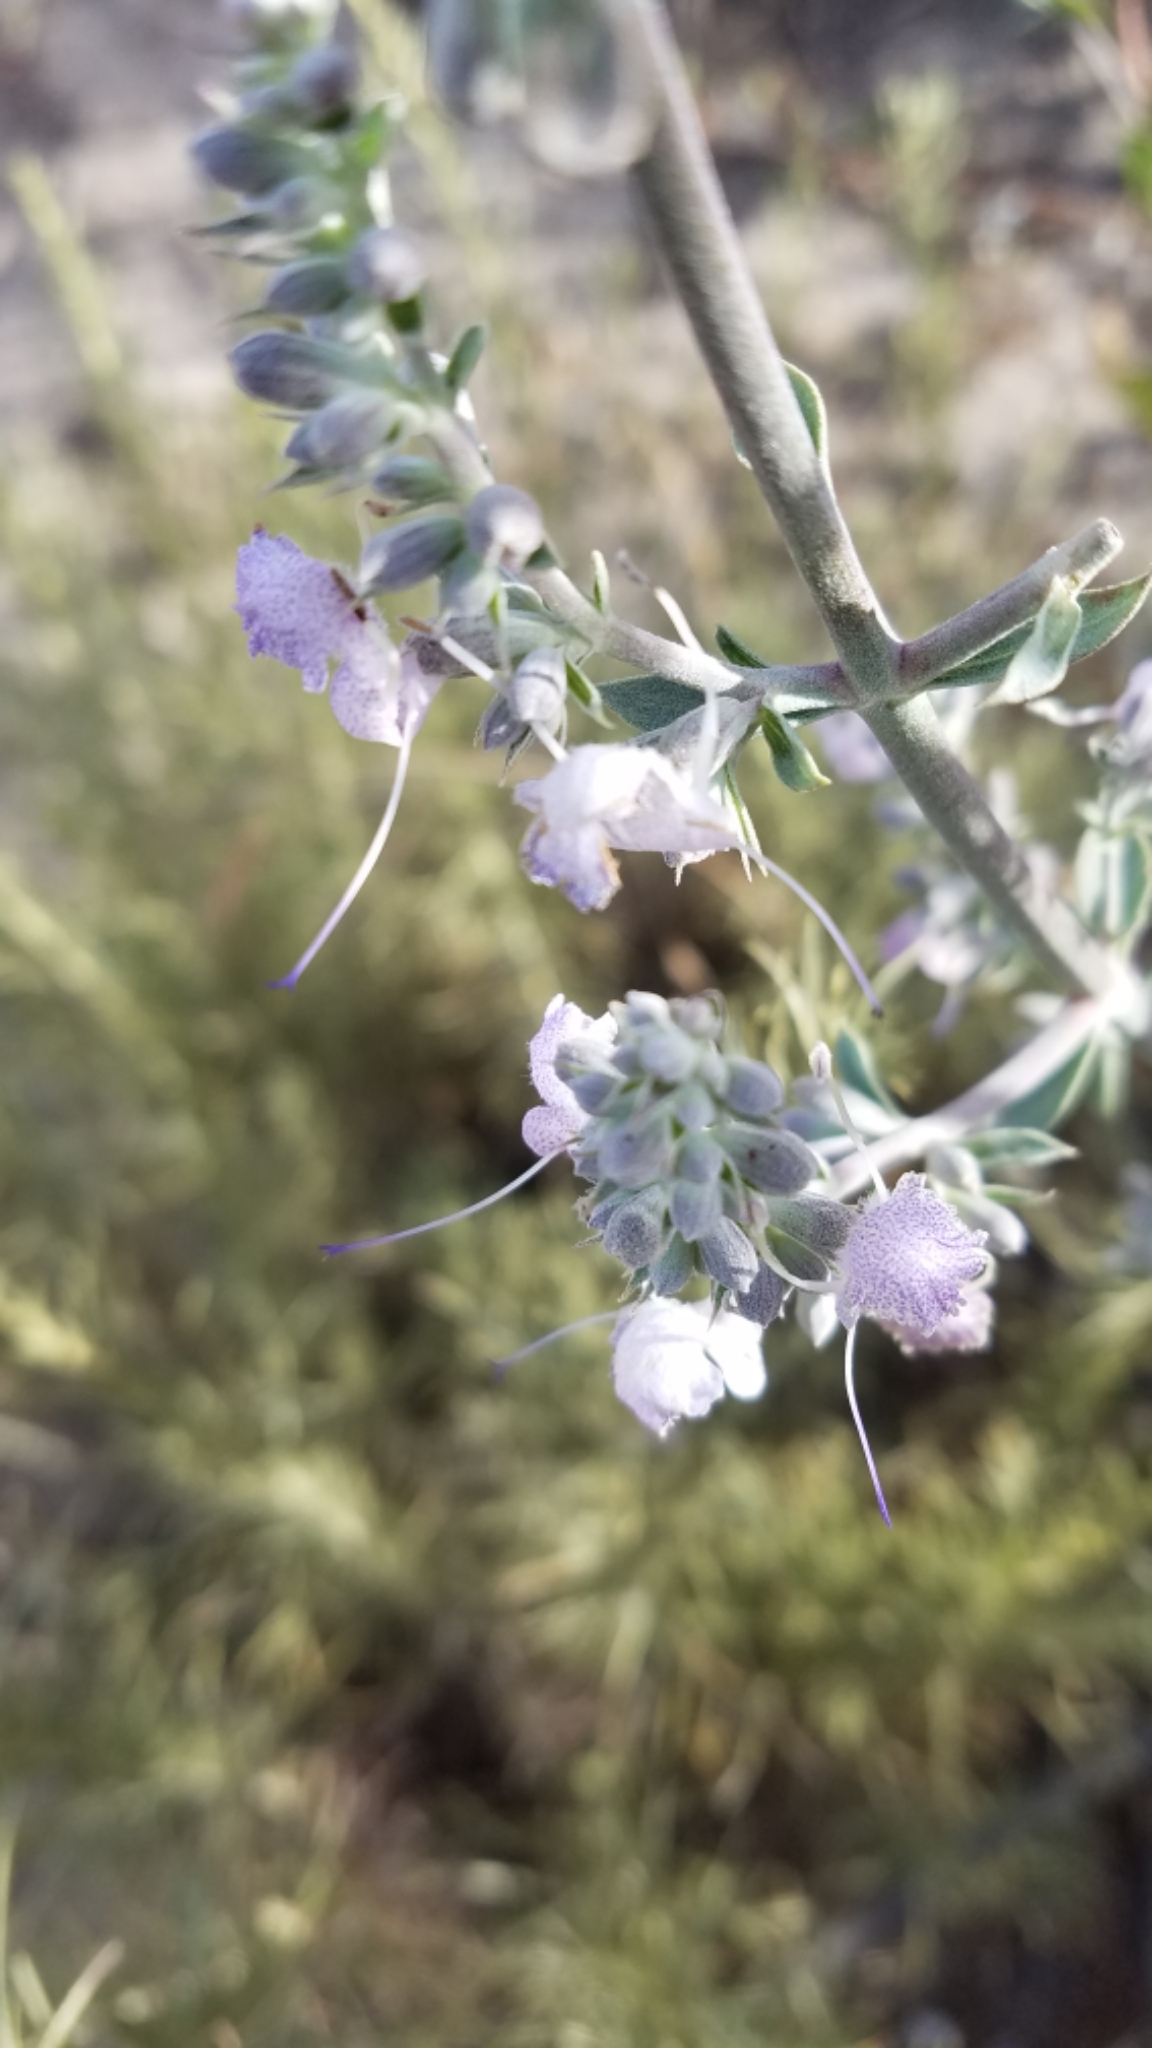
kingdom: Plantae
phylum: Tracheophyta
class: Magnoliopsida
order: Lamiales
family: Lamiaceae
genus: Salvia
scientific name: Salvia apiana
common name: White sage
